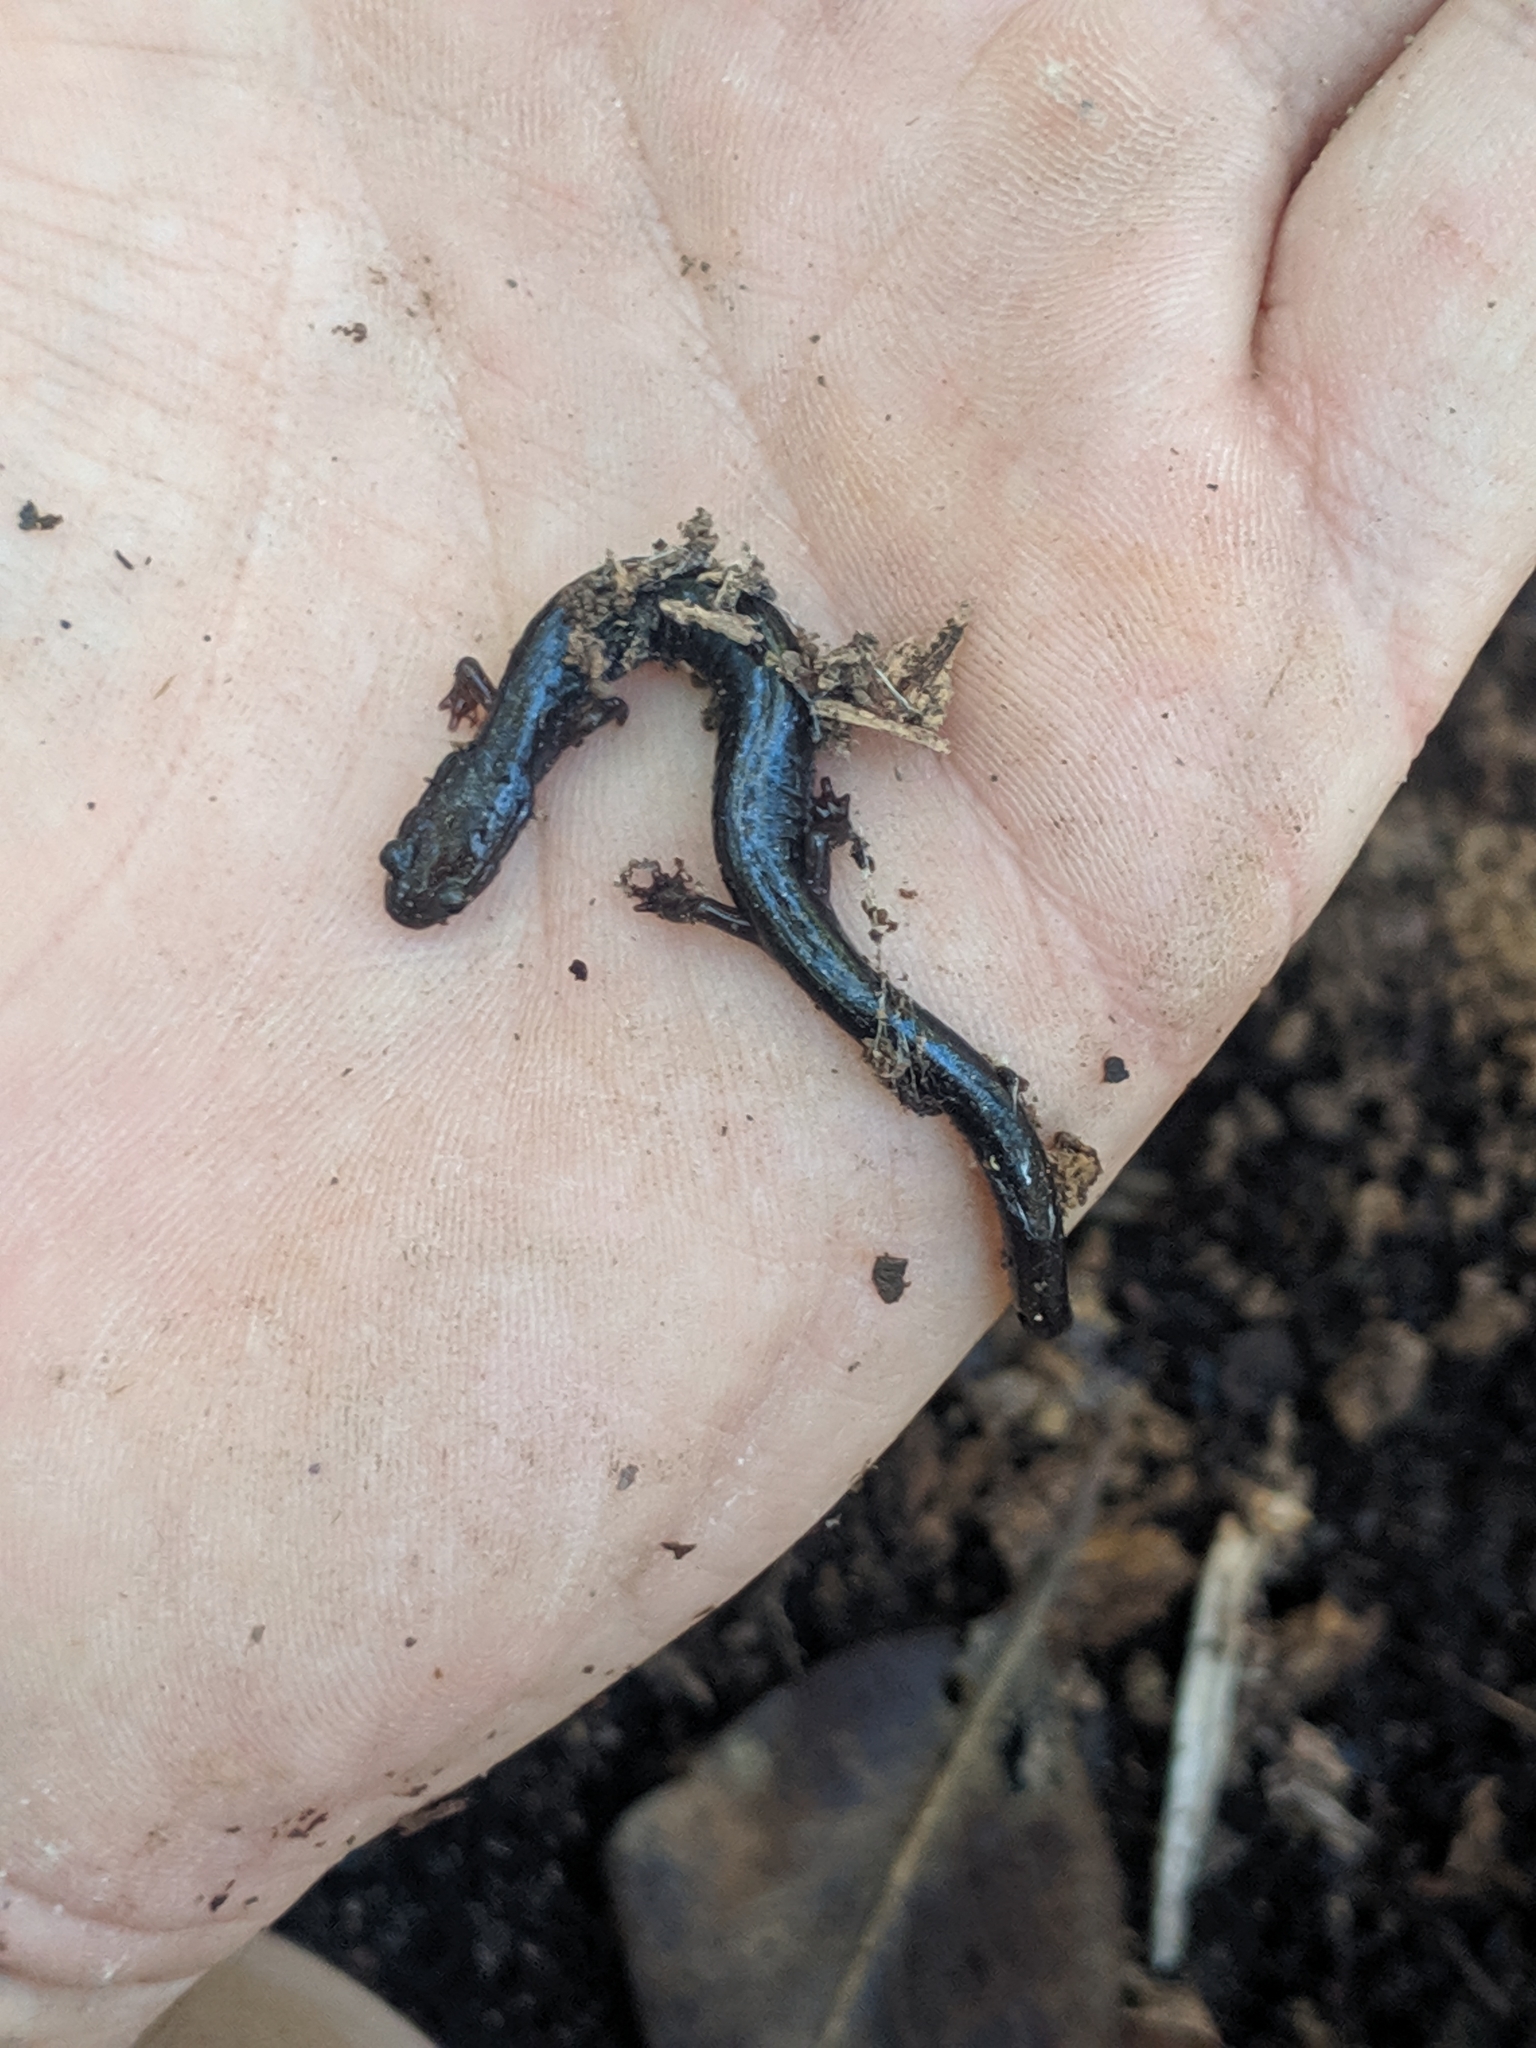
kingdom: Animalia
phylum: Chordata
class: Amphibia
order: Caudata
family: Plethodontidae
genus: Plethodon
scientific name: Plethodon richmondi
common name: Ravine salamander
